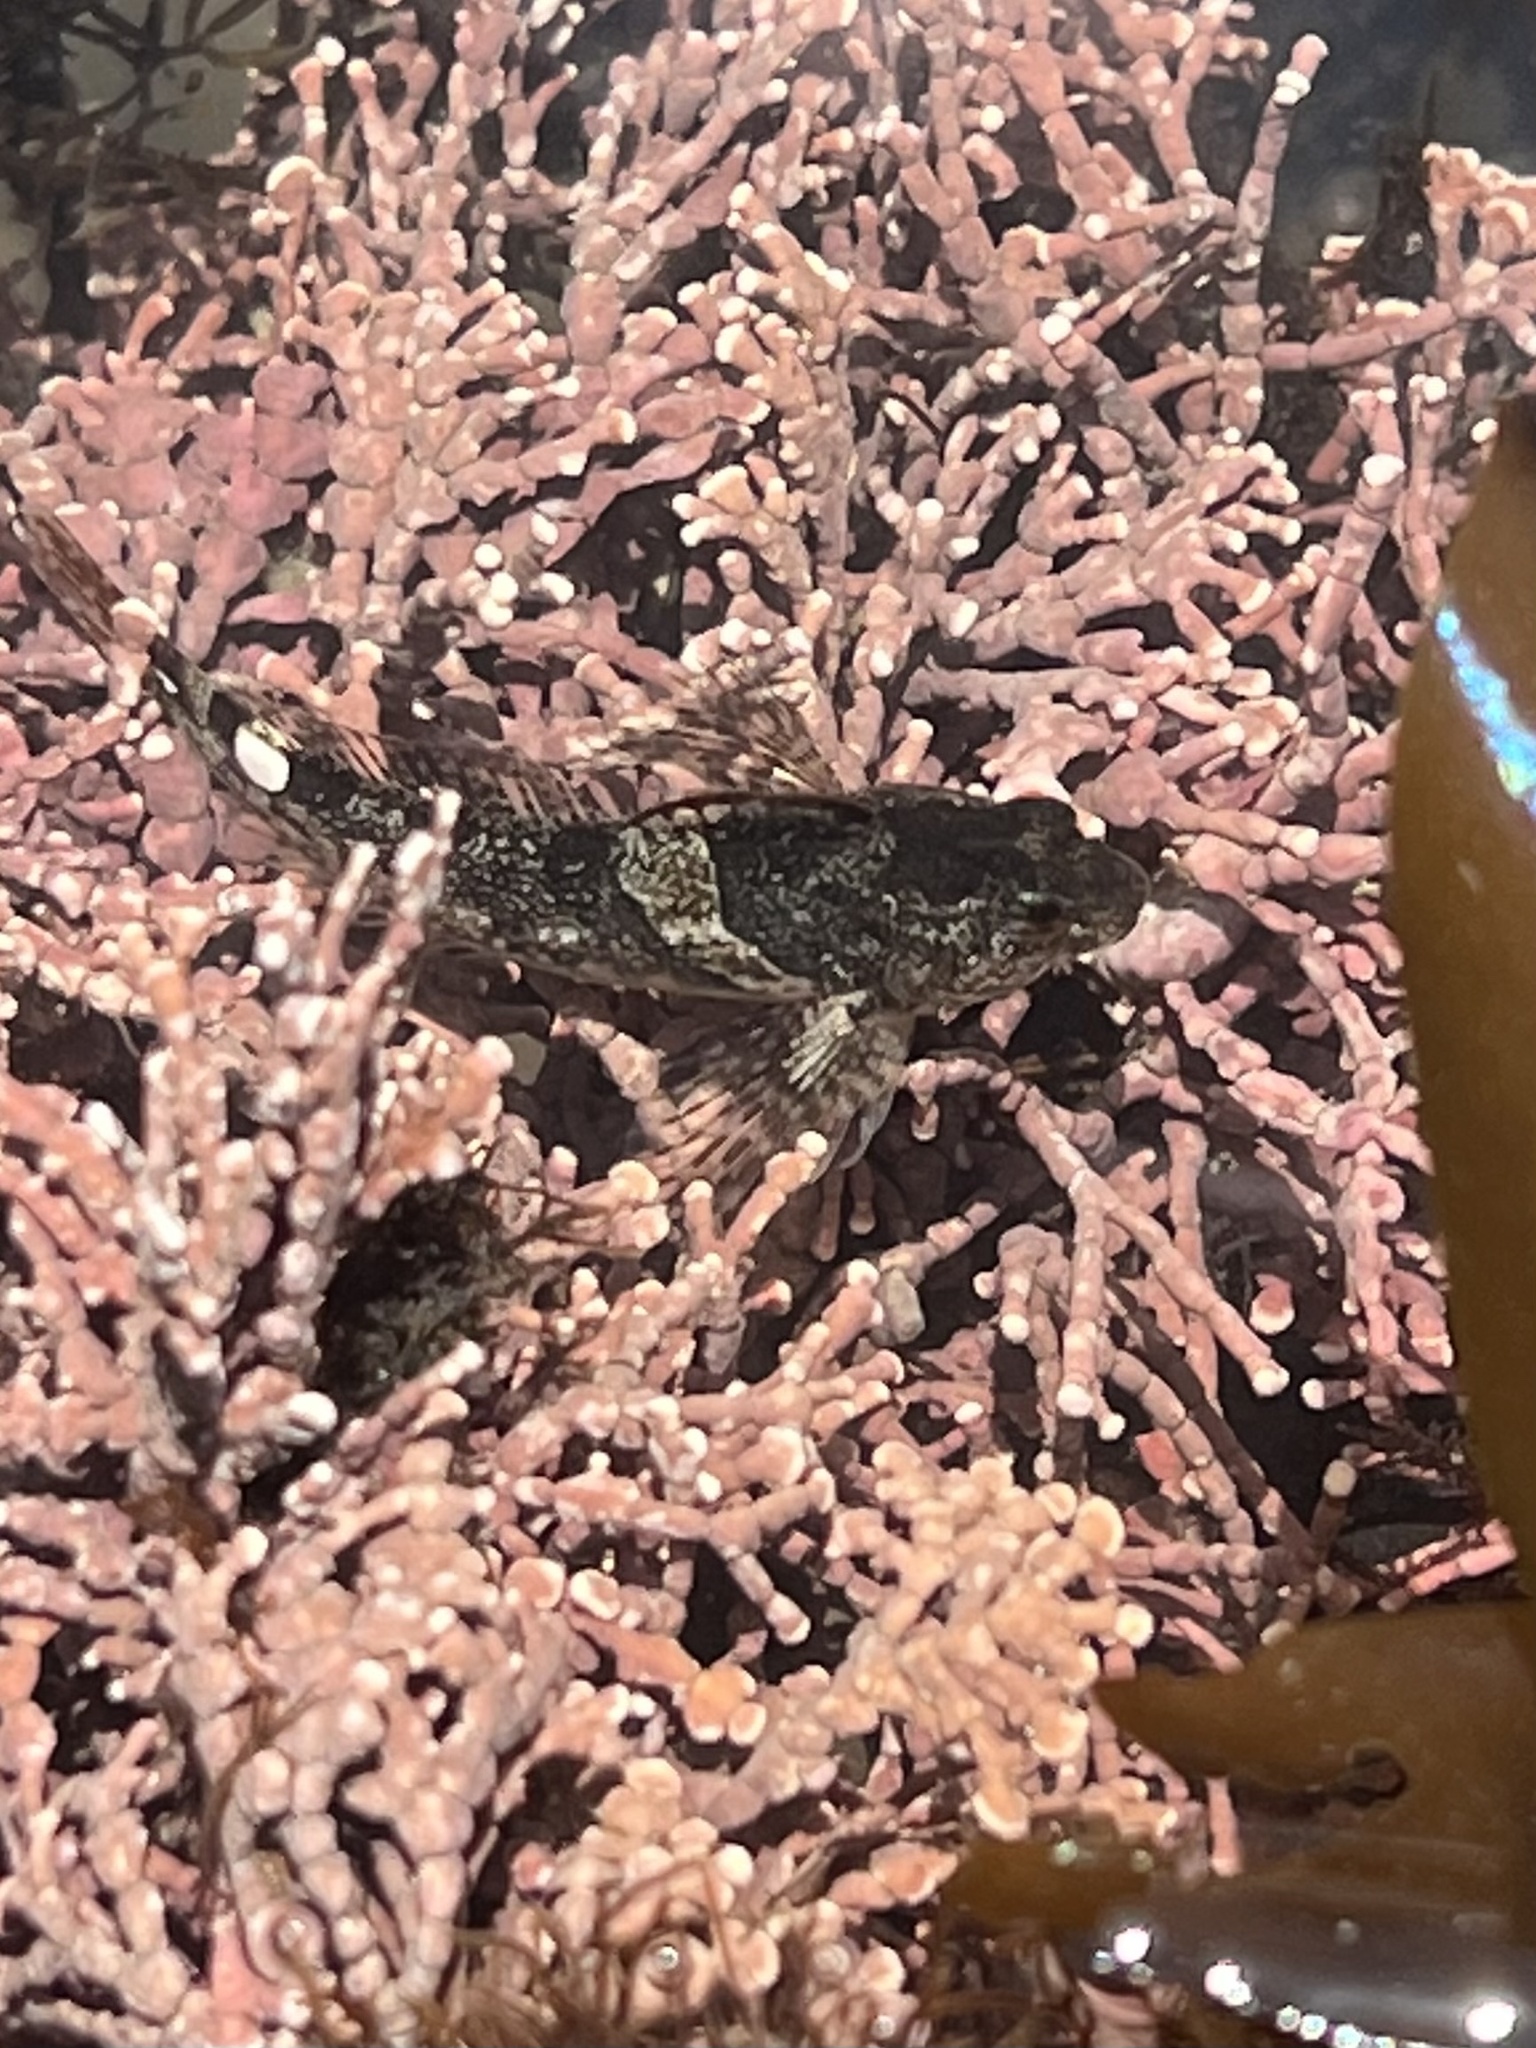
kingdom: Animalia
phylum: Chordata
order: Scorpaeniformes
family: Cottidae
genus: Oligocottus
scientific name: Oligocottus maculosus
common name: Tidepool sculpin
